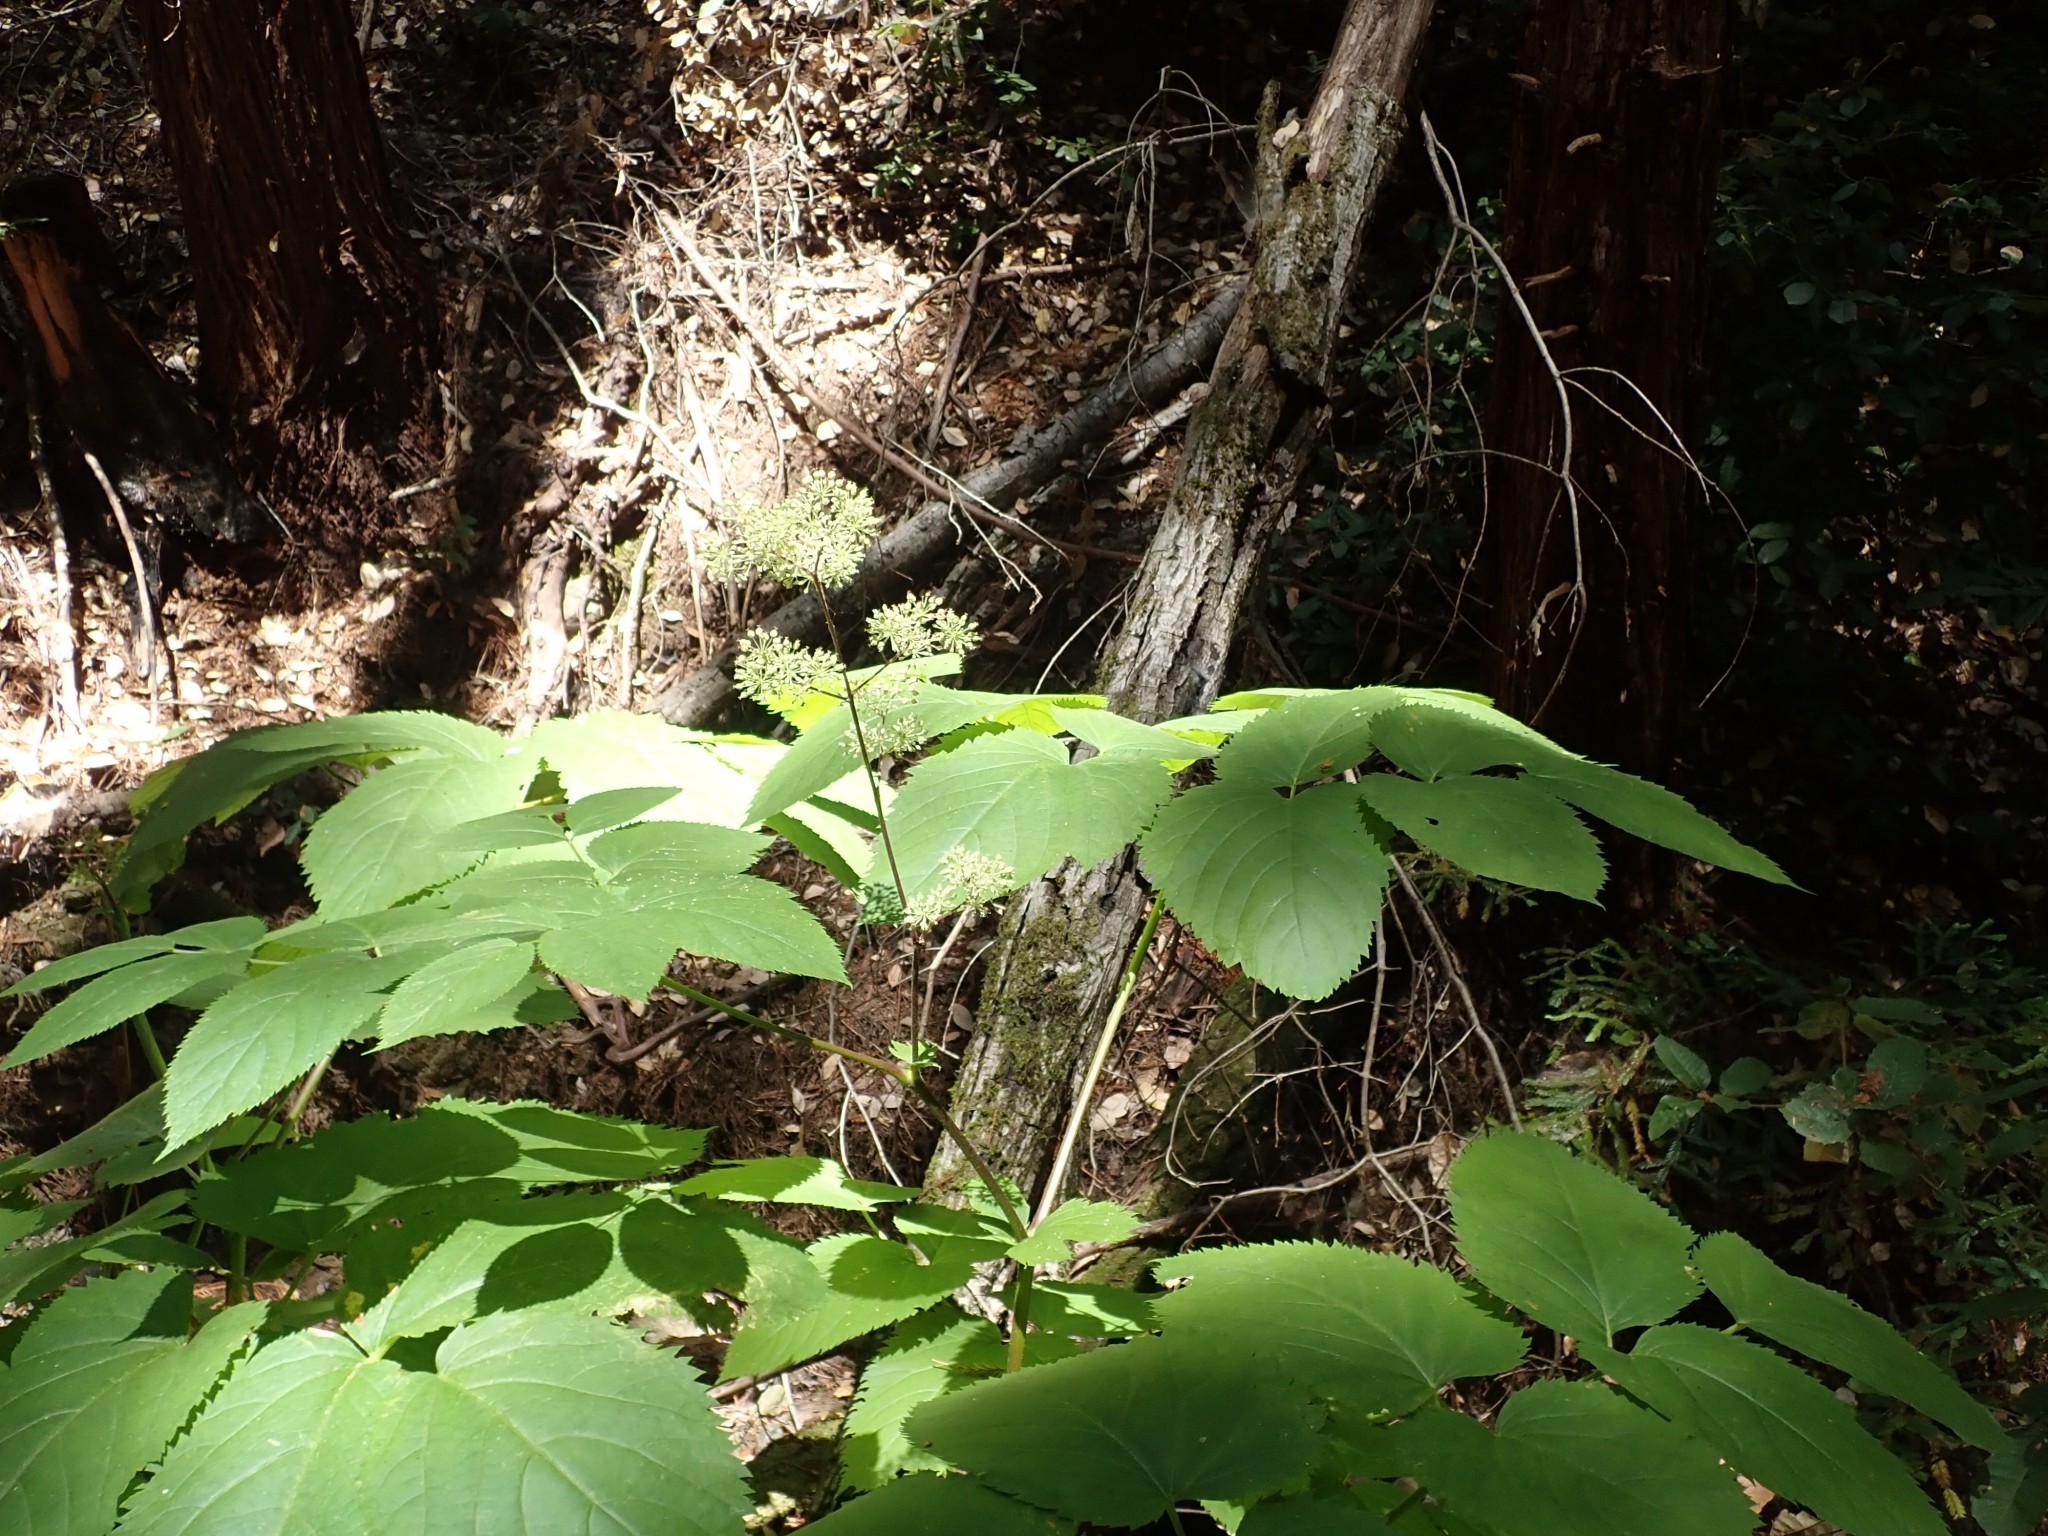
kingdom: Plantae
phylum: Tracheophyta
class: Magnoliopsida
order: Apiales
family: Araliaceae
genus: Aralia
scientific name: Aralia californica
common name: California-ginseng
